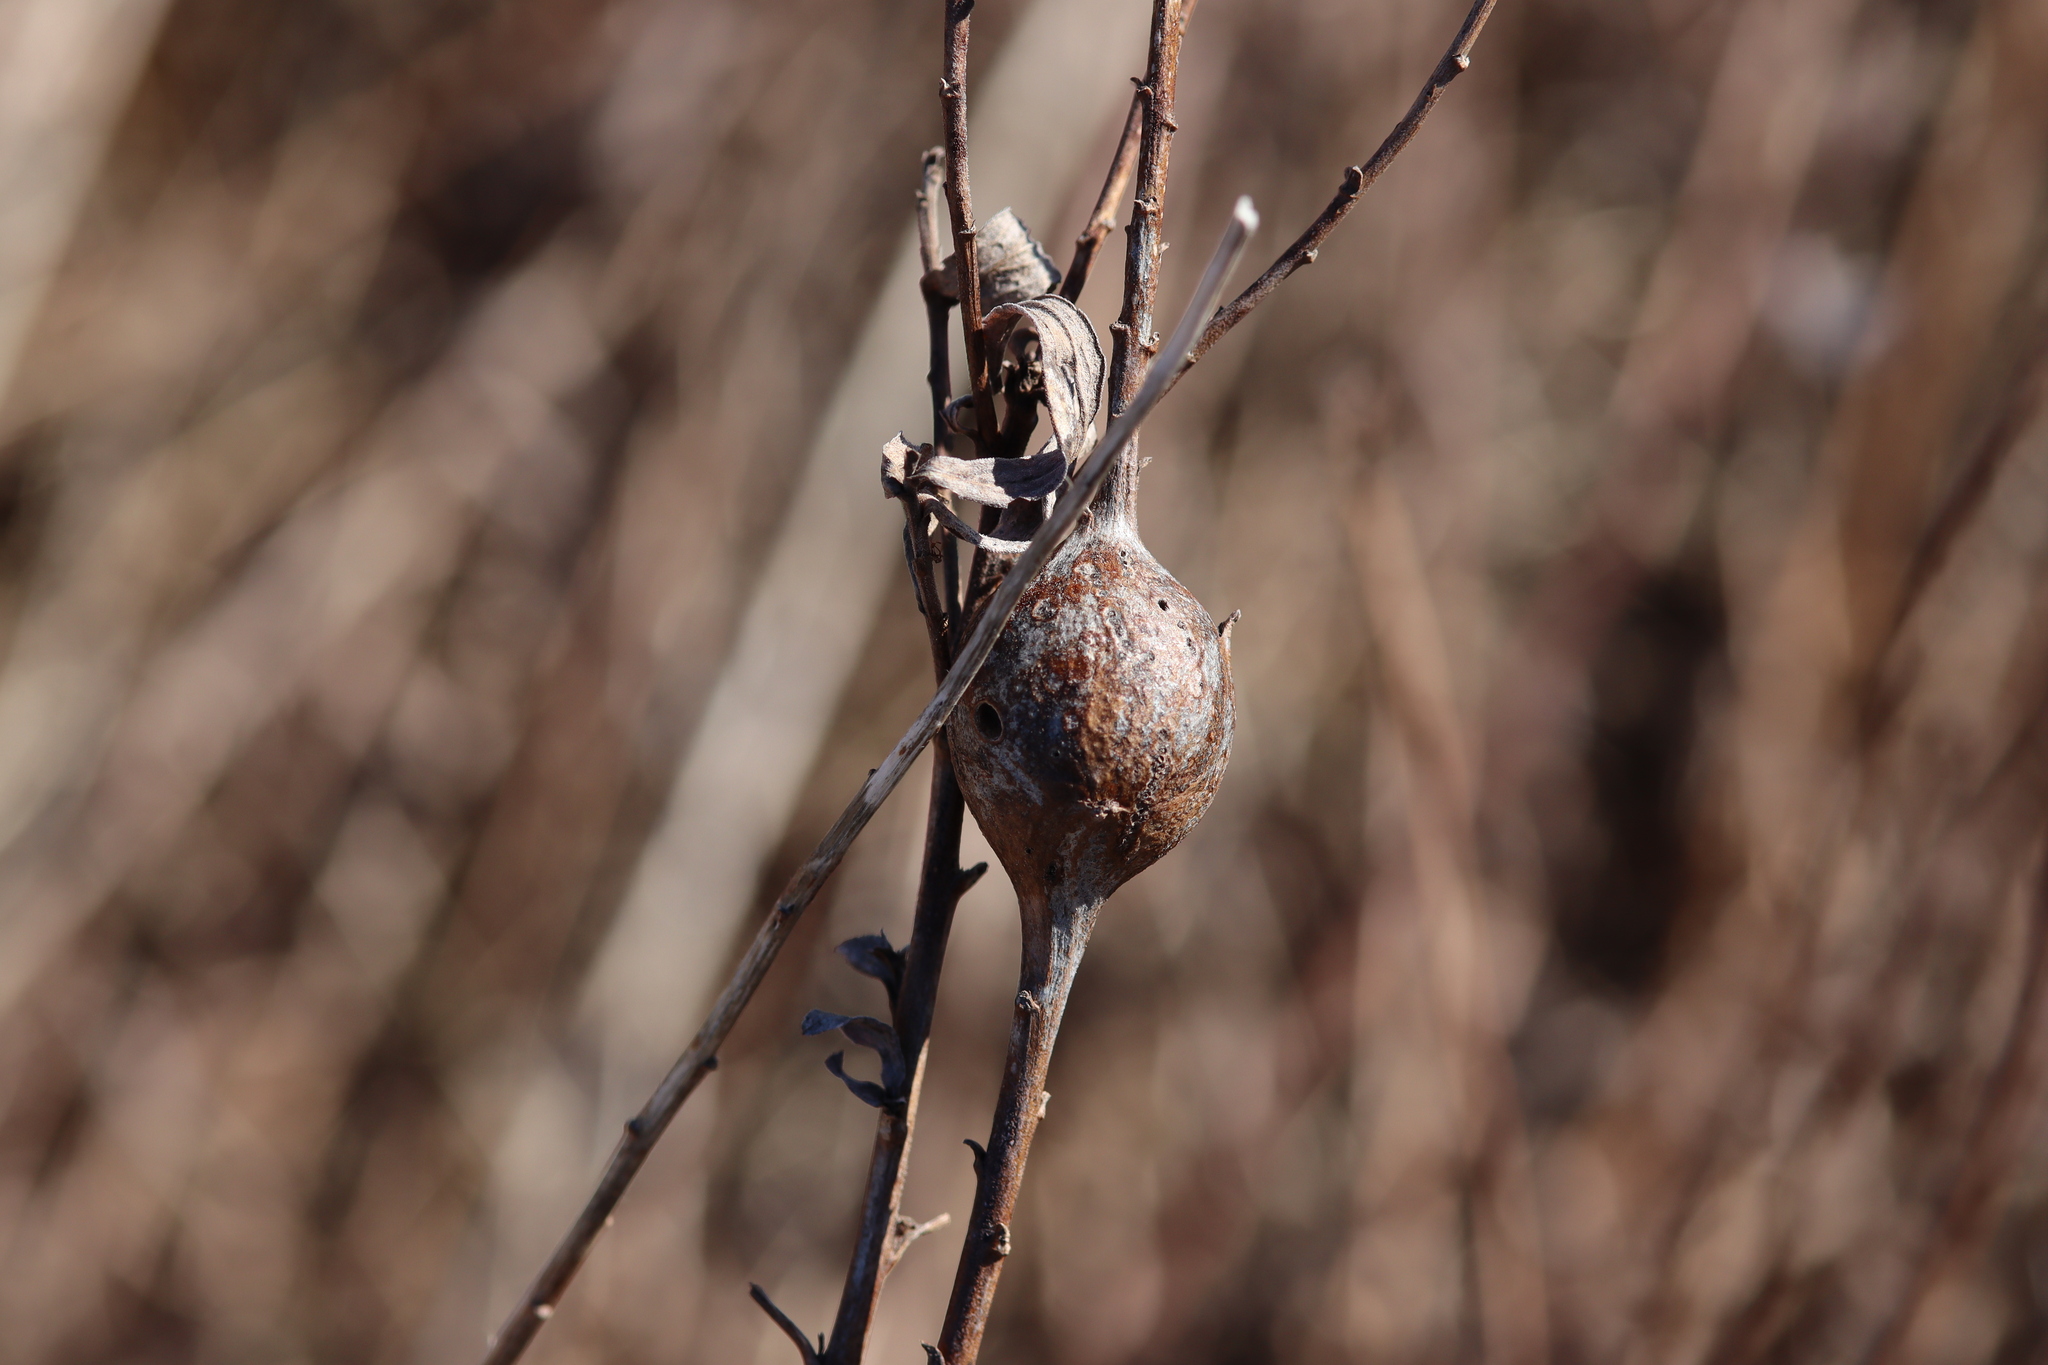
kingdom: Animalia
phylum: Arthropoda
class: Insecta
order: Diptera
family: Tephritidae
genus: Eurosta
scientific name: Eurosta solidaginis
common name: Goldenrod gall fly
